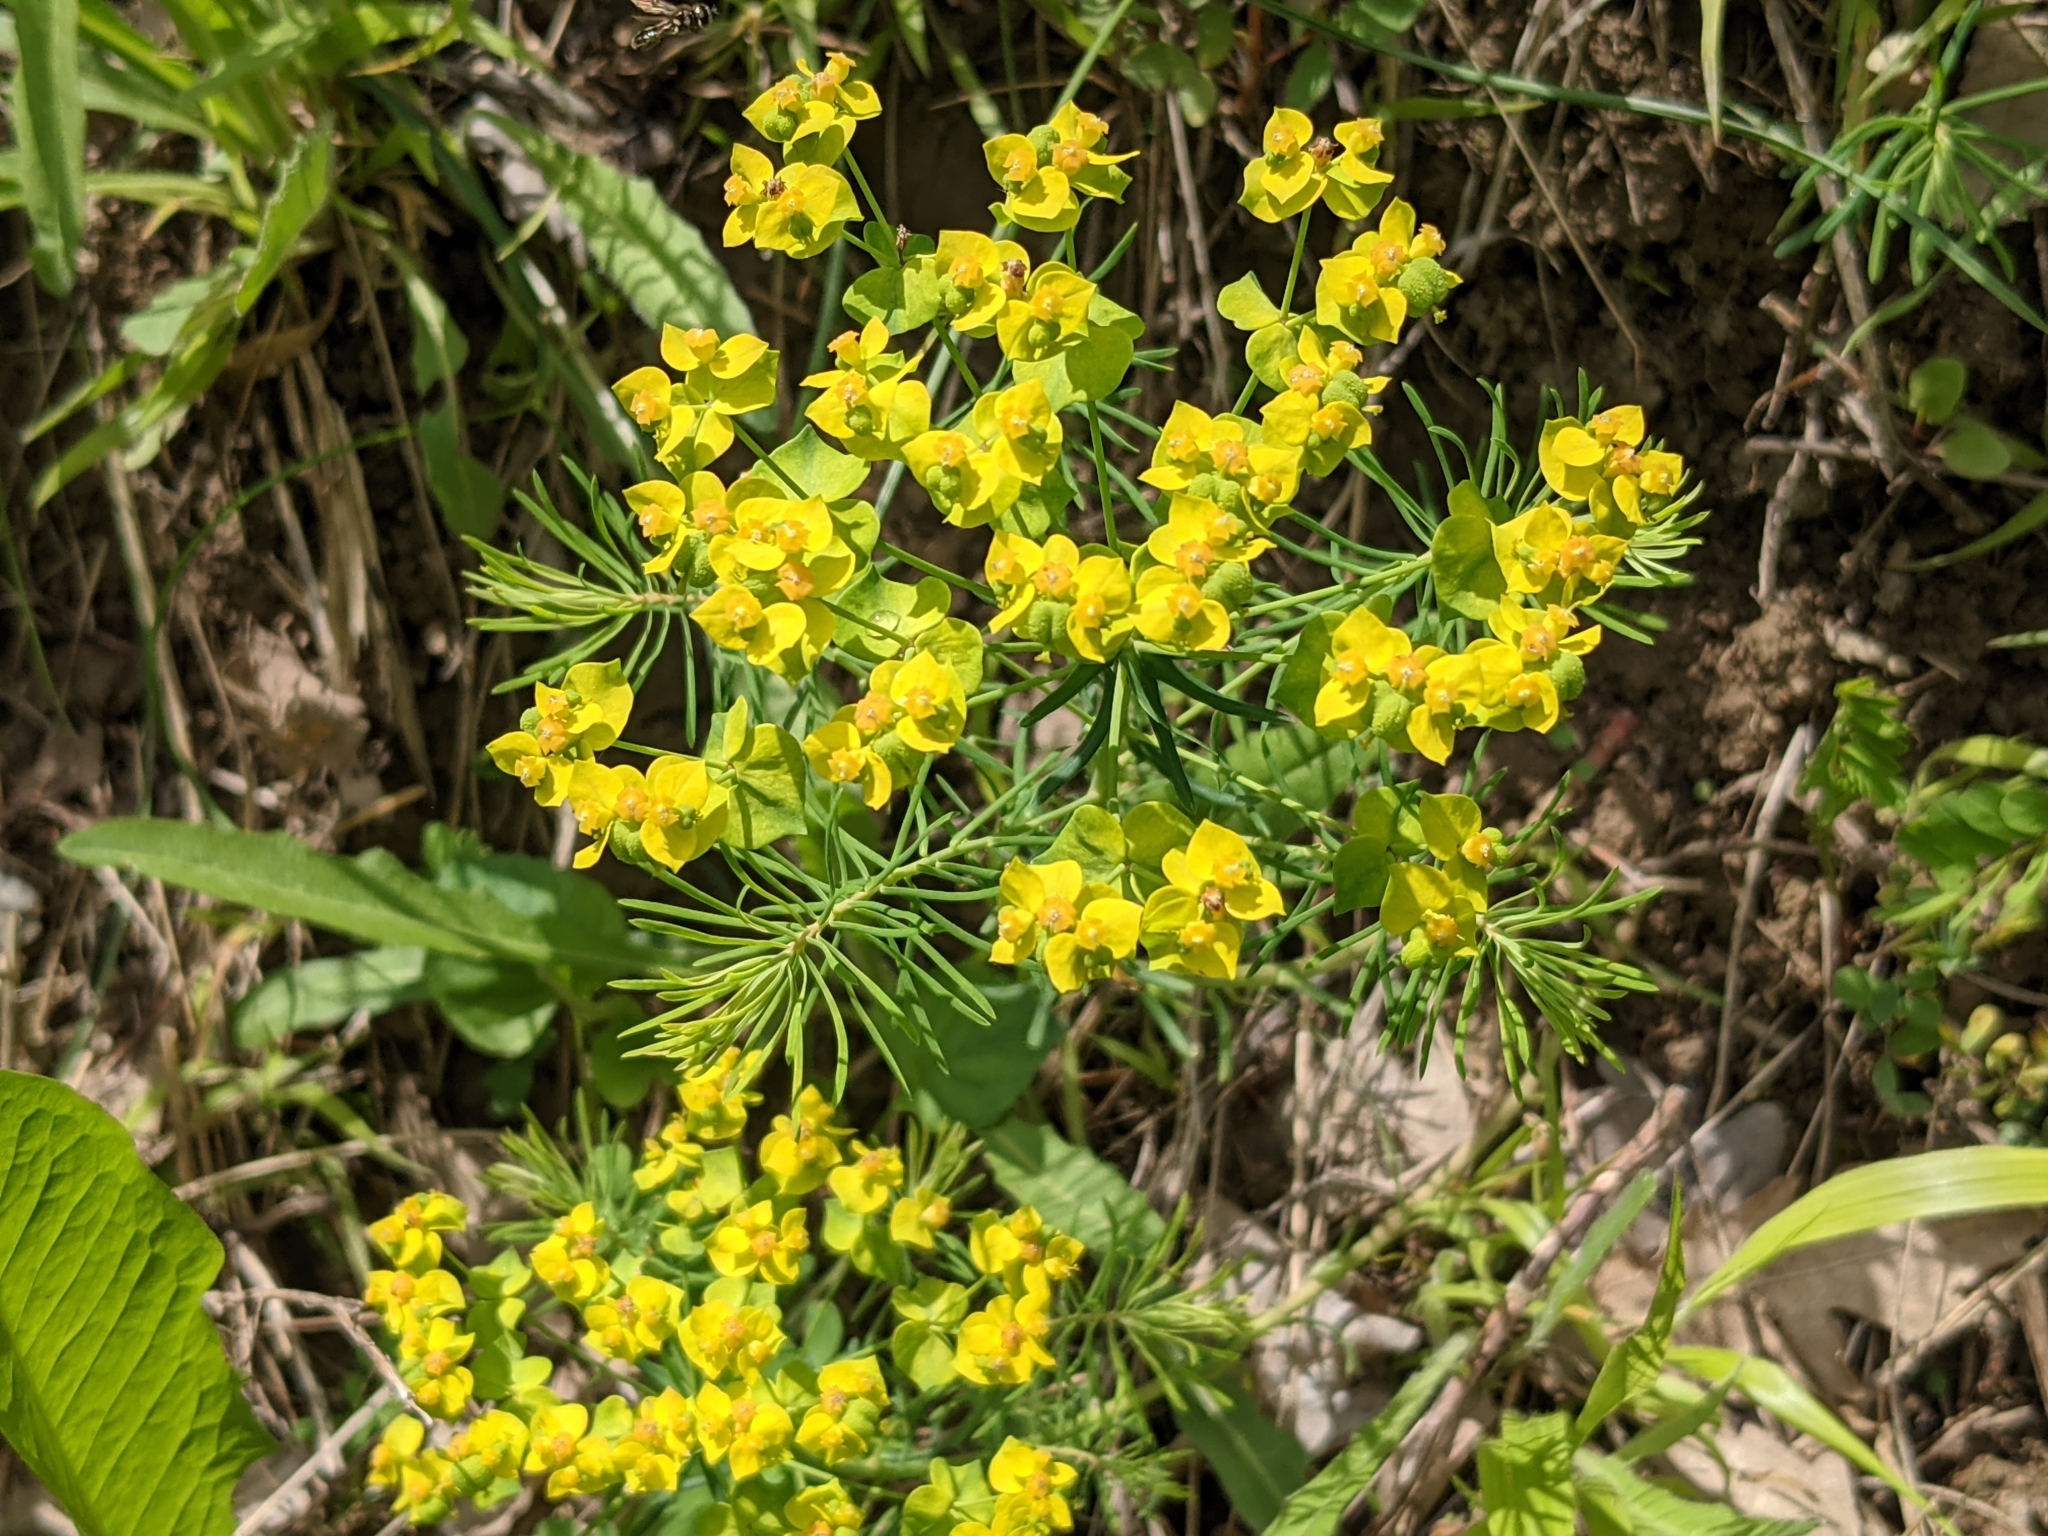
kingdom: Plantae
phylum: Tracheophyta
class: Magnoliopsida
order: Malpighiales
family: Euphorbiaceae
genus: Euphorbia
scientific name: Euphorbia cyparissias
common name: Cypress spurge
